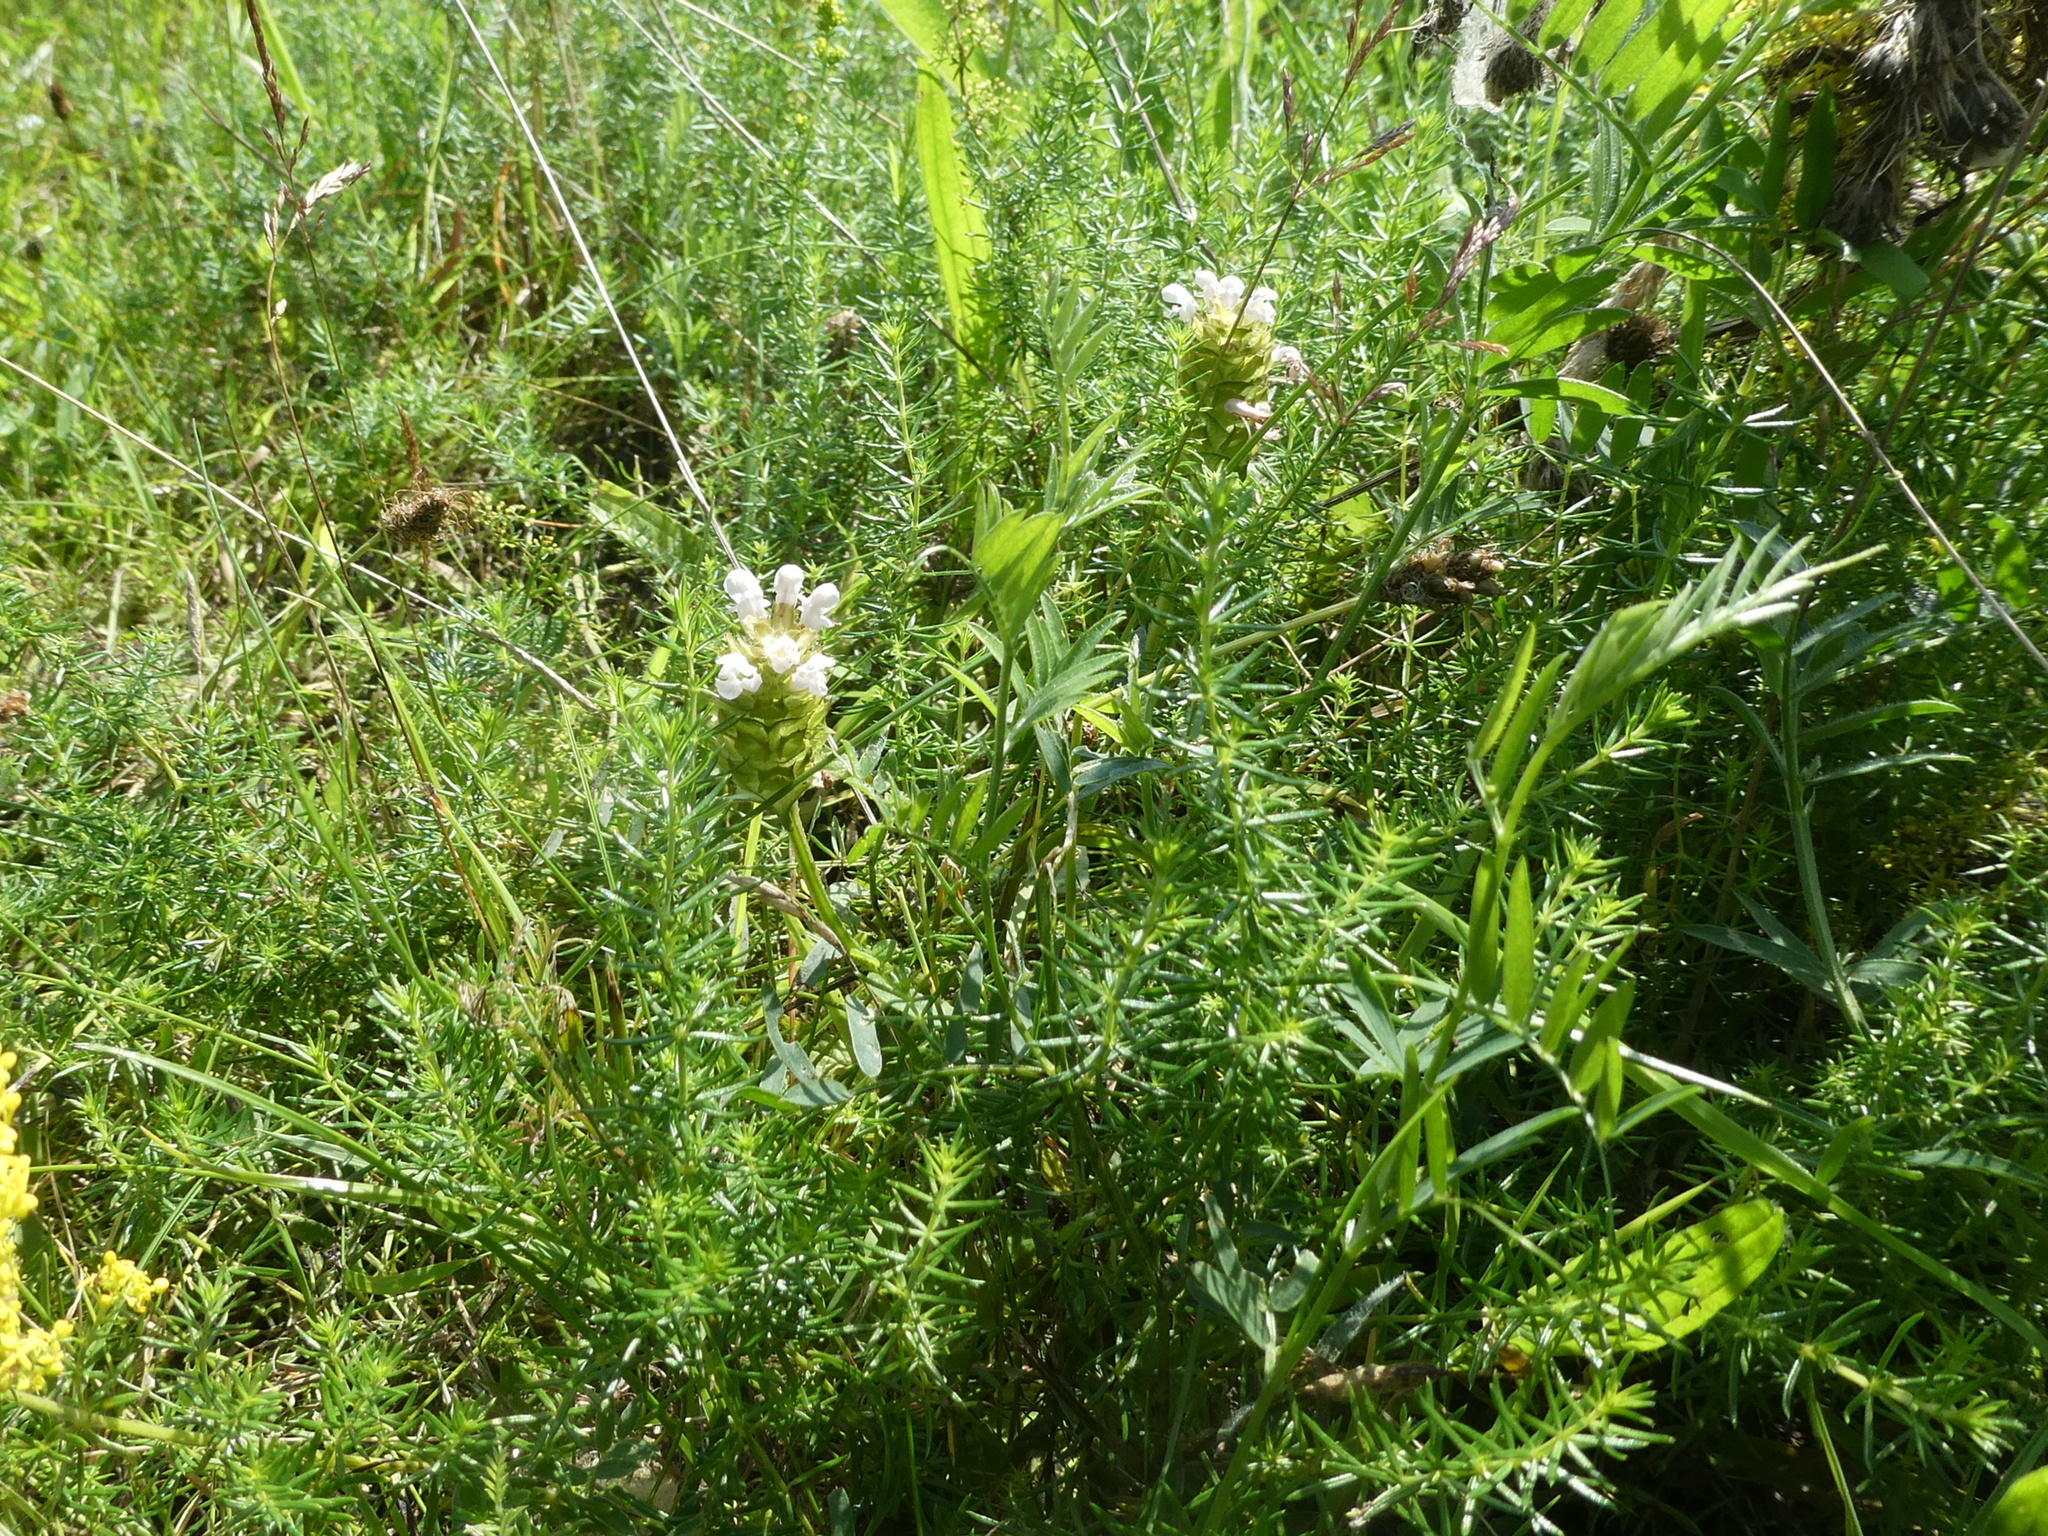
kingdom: Plantae
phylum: Tracheophyta
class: Magnoliopsida
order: Lamiales
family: Lamiaceae
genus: Prunella
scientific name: Prunella vulgaris
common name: Heal-all
